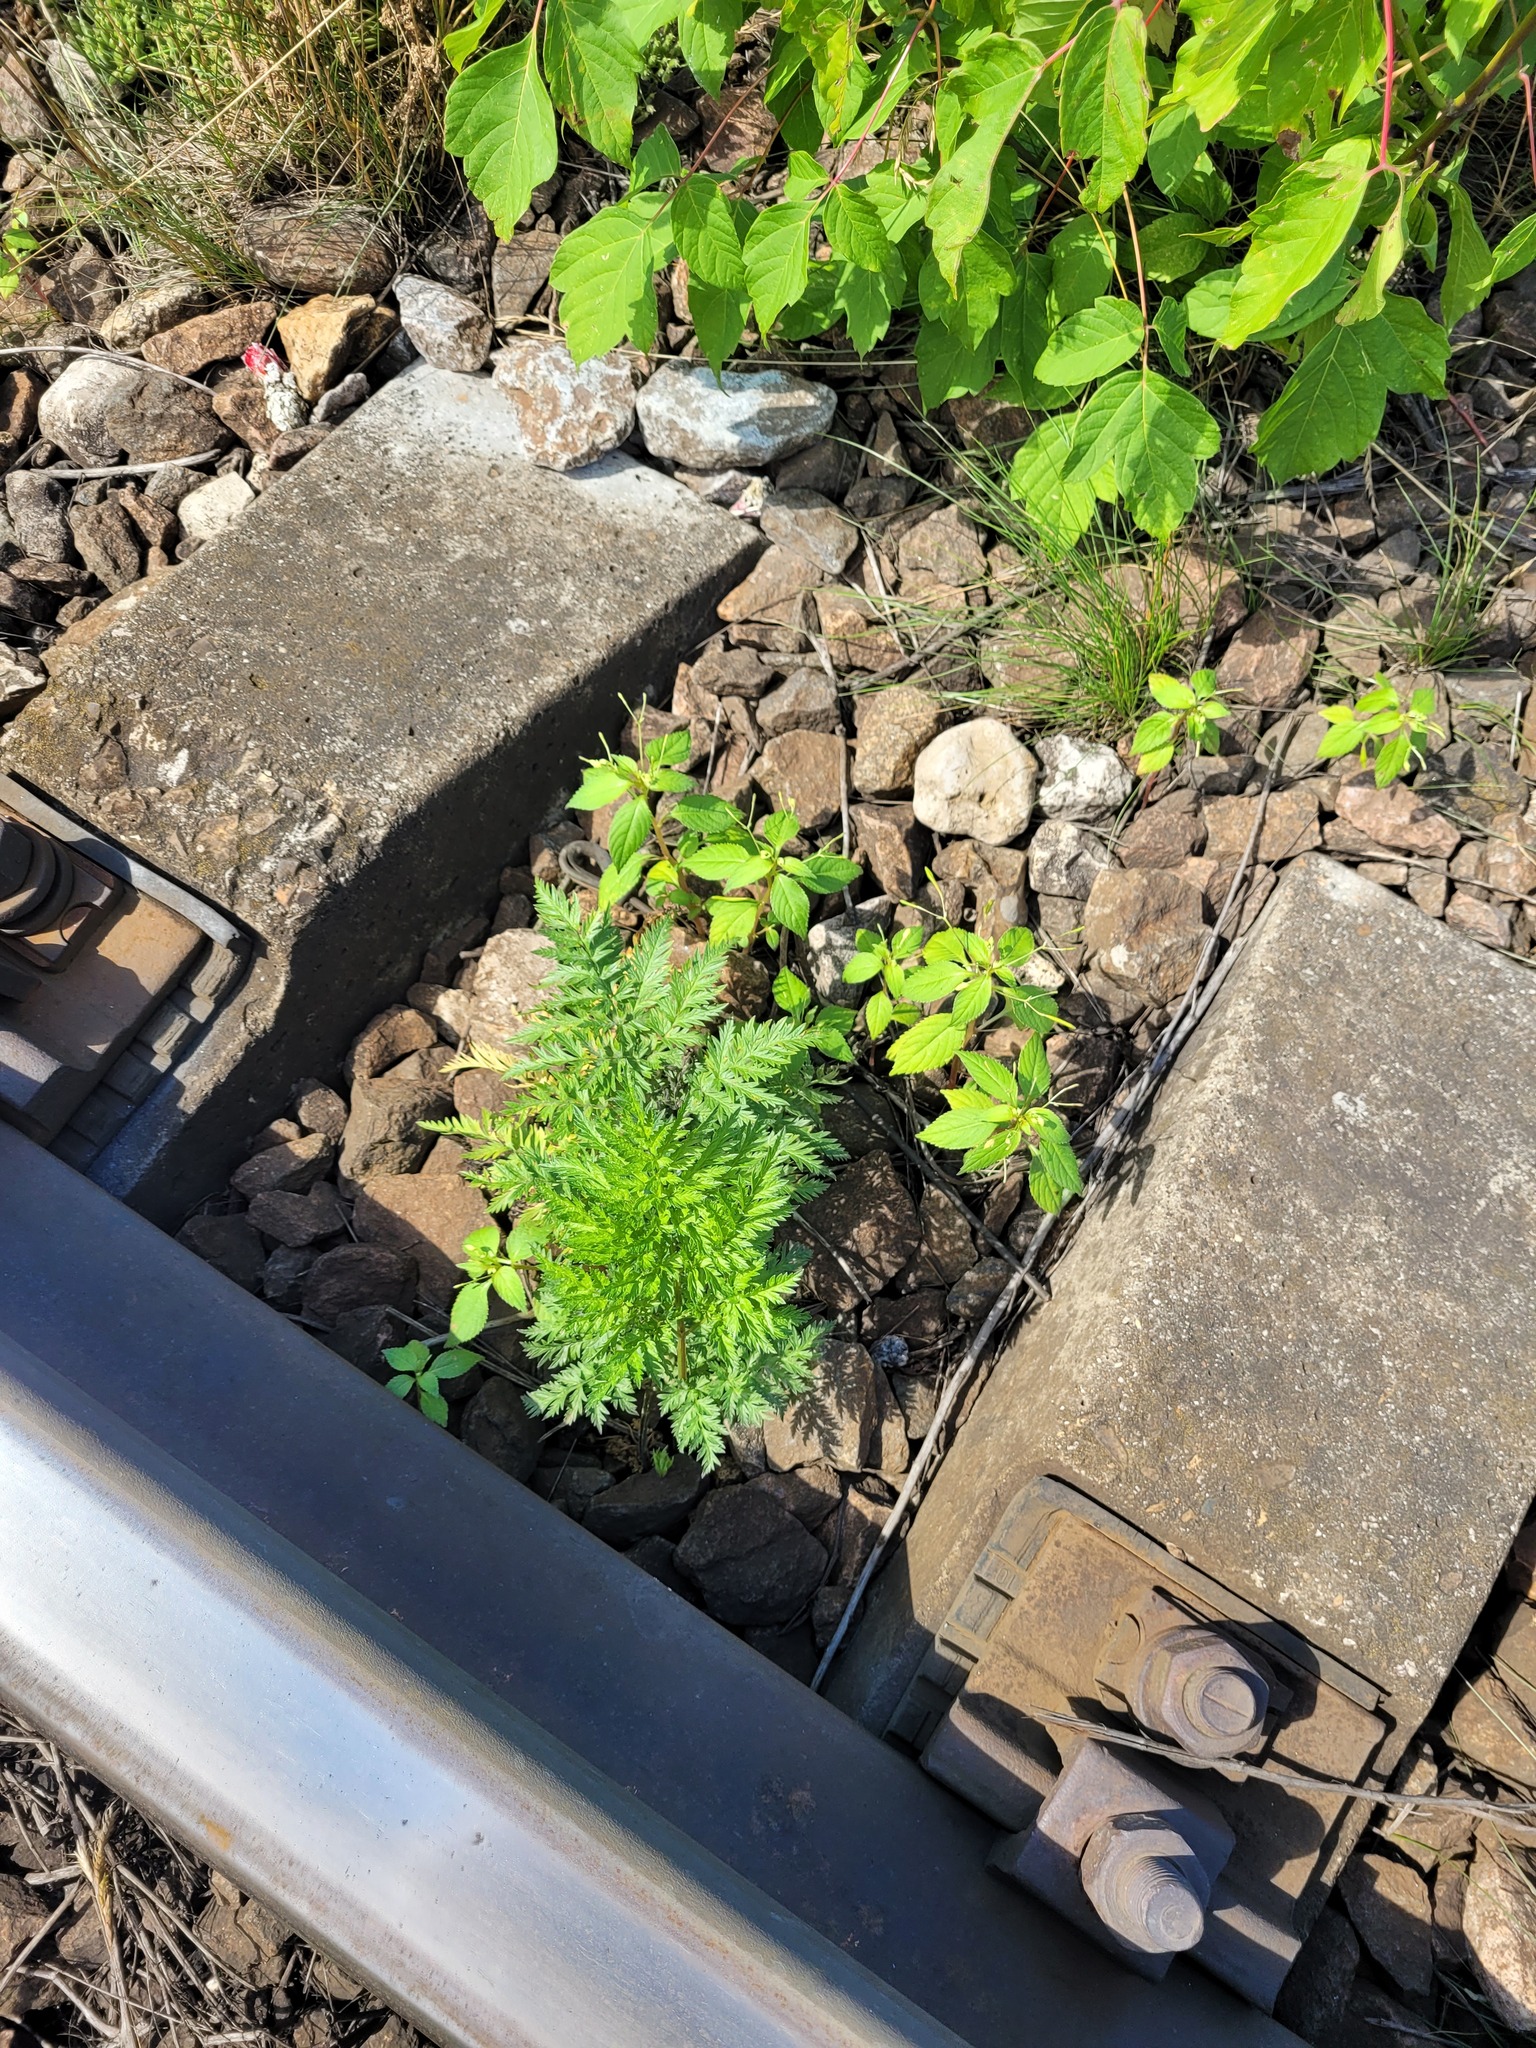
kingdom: Plantae
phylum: Tracheophyta
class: Magnoliopsida
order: Apiales
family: Apiaceae
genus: Anthriscus
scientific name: Anthriscus sylvestris
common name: Cow parsley
